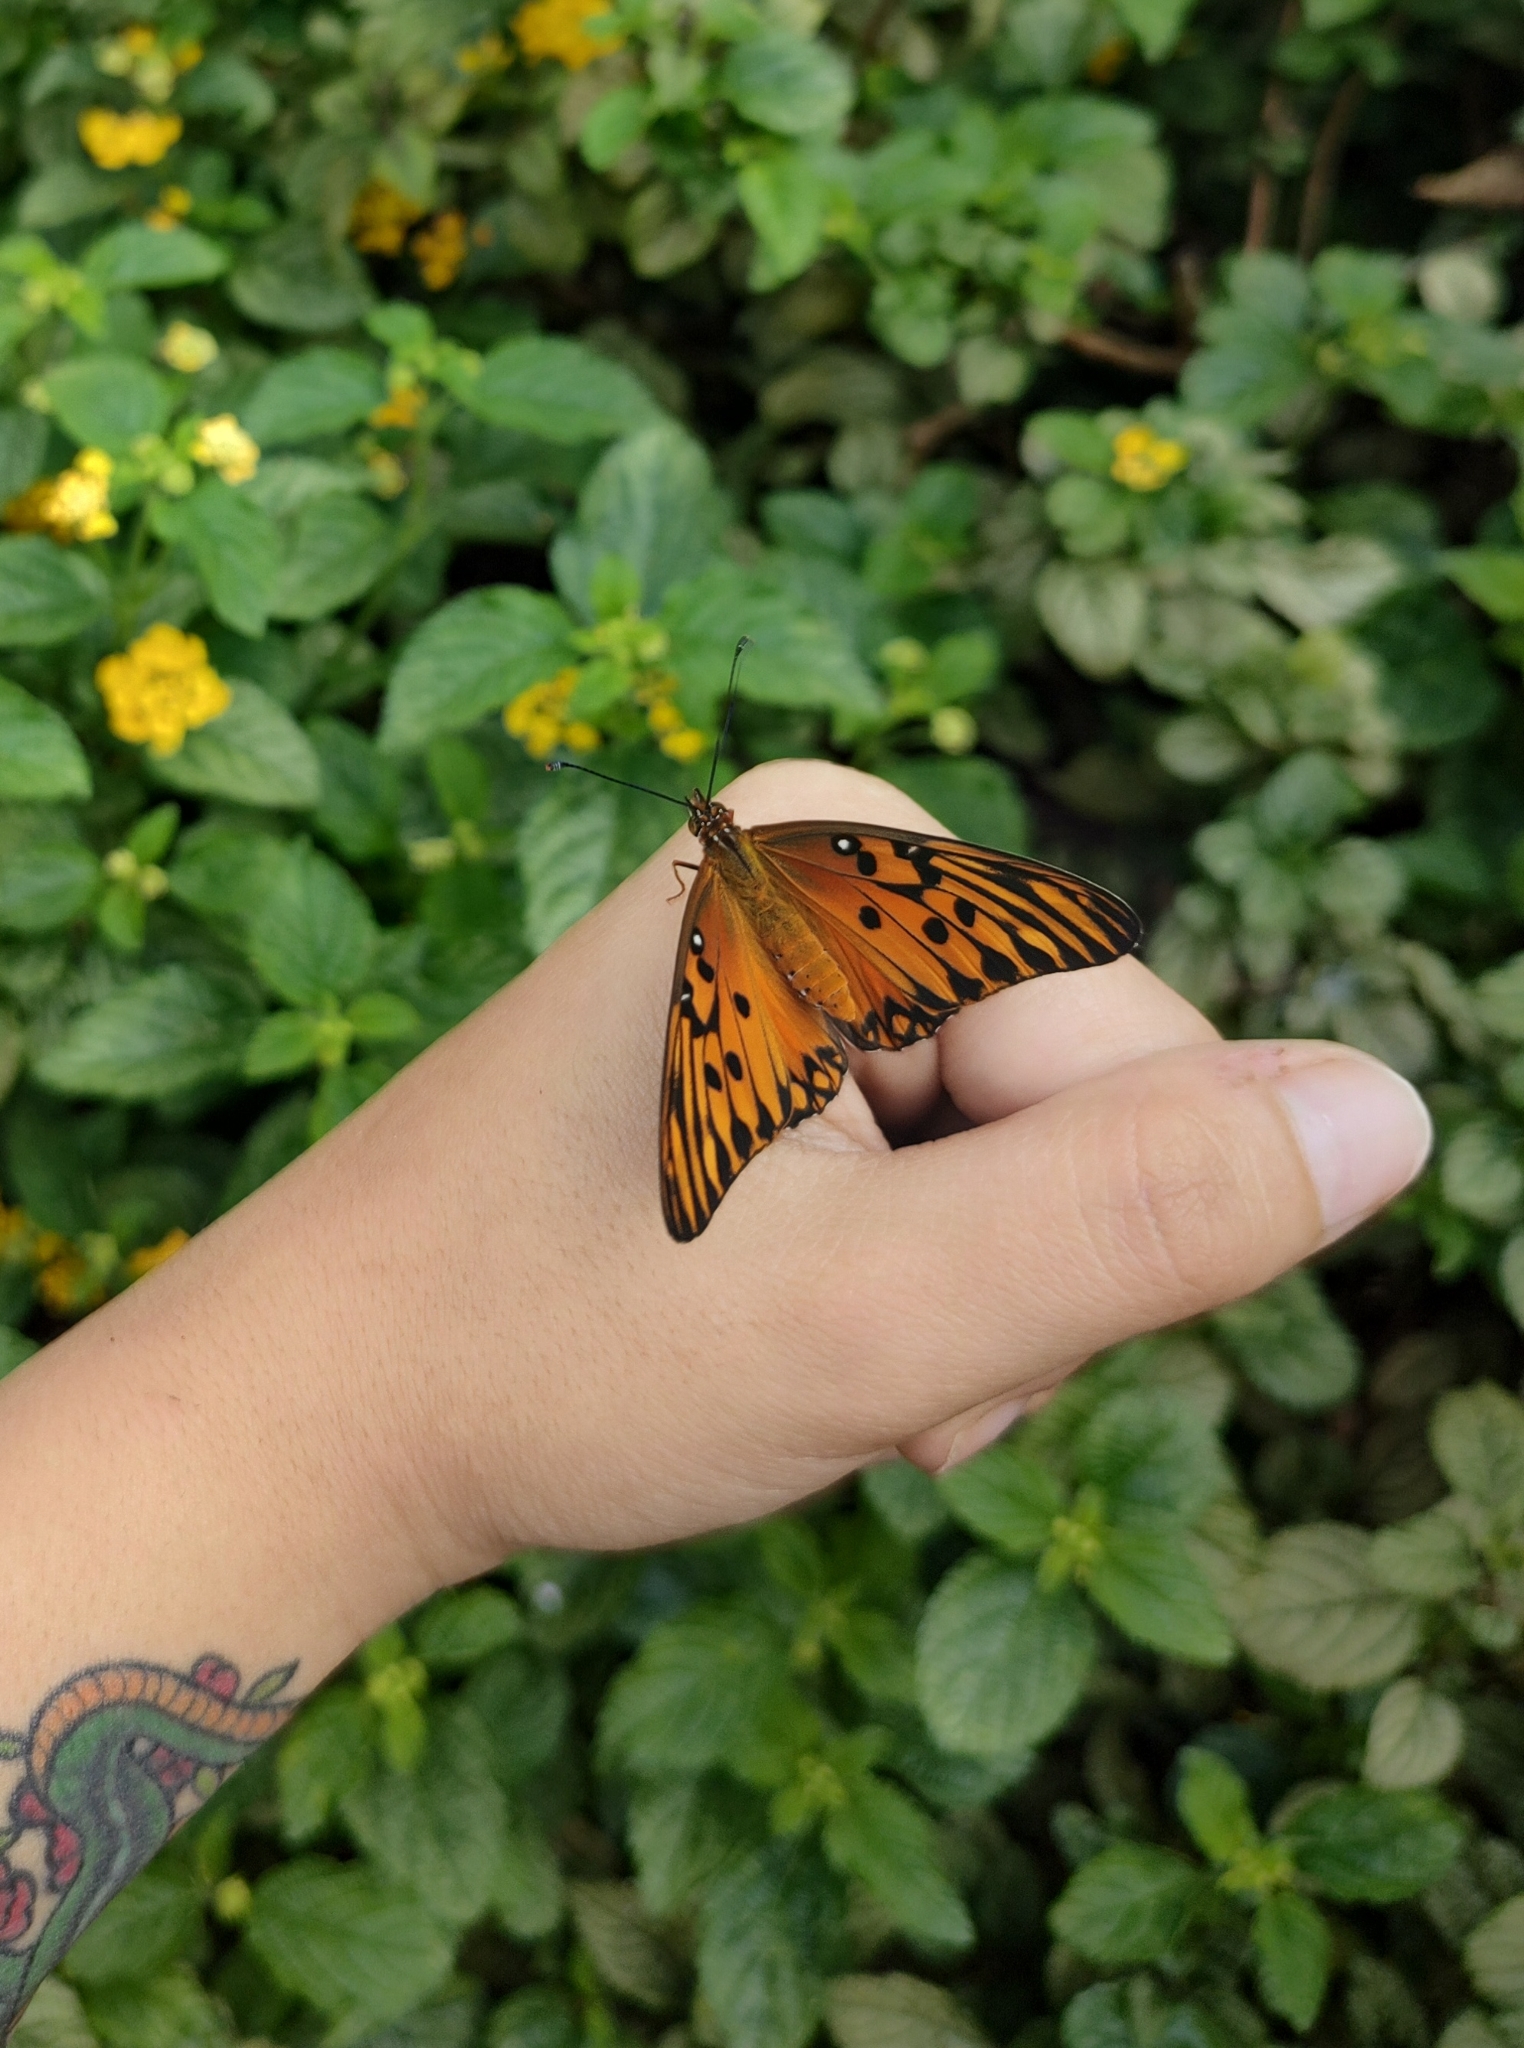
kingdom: Animalia
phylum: Arthropoda
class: Insecta
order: Lepidoptera
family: Nymphalidae
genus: Dione
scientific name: Dione vanillae
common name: Gulf fritillary
